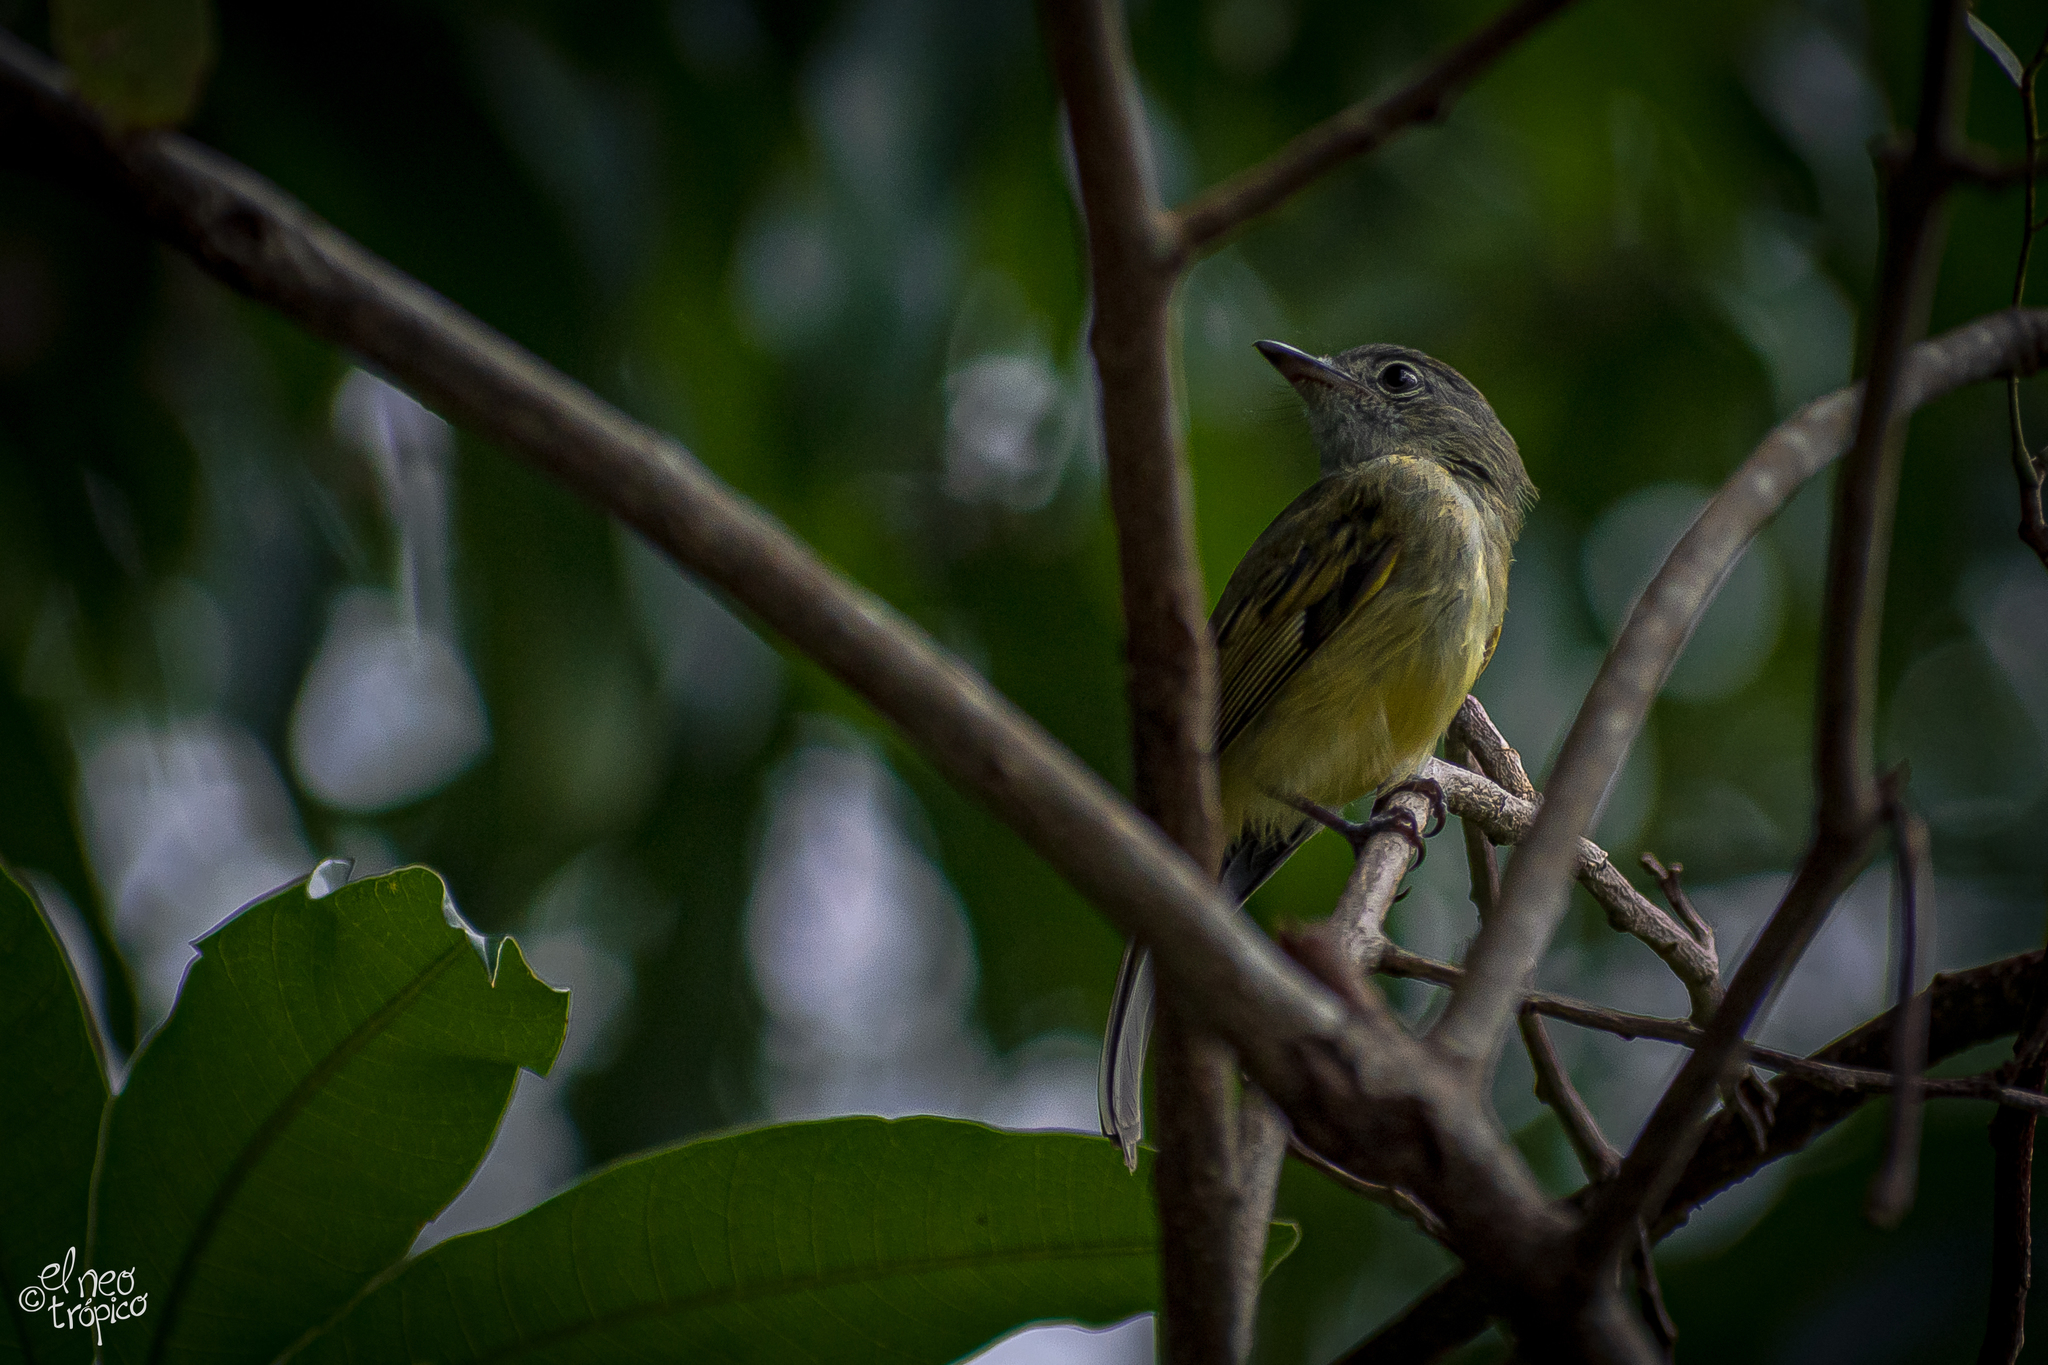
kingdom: Animalia
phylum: Chordata
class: Aves
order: Passeriformes
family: Tyrannidae
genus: Tolmomyias
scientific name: Tolmomyias sulphurescens
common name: Yellow-olive flycatcher
